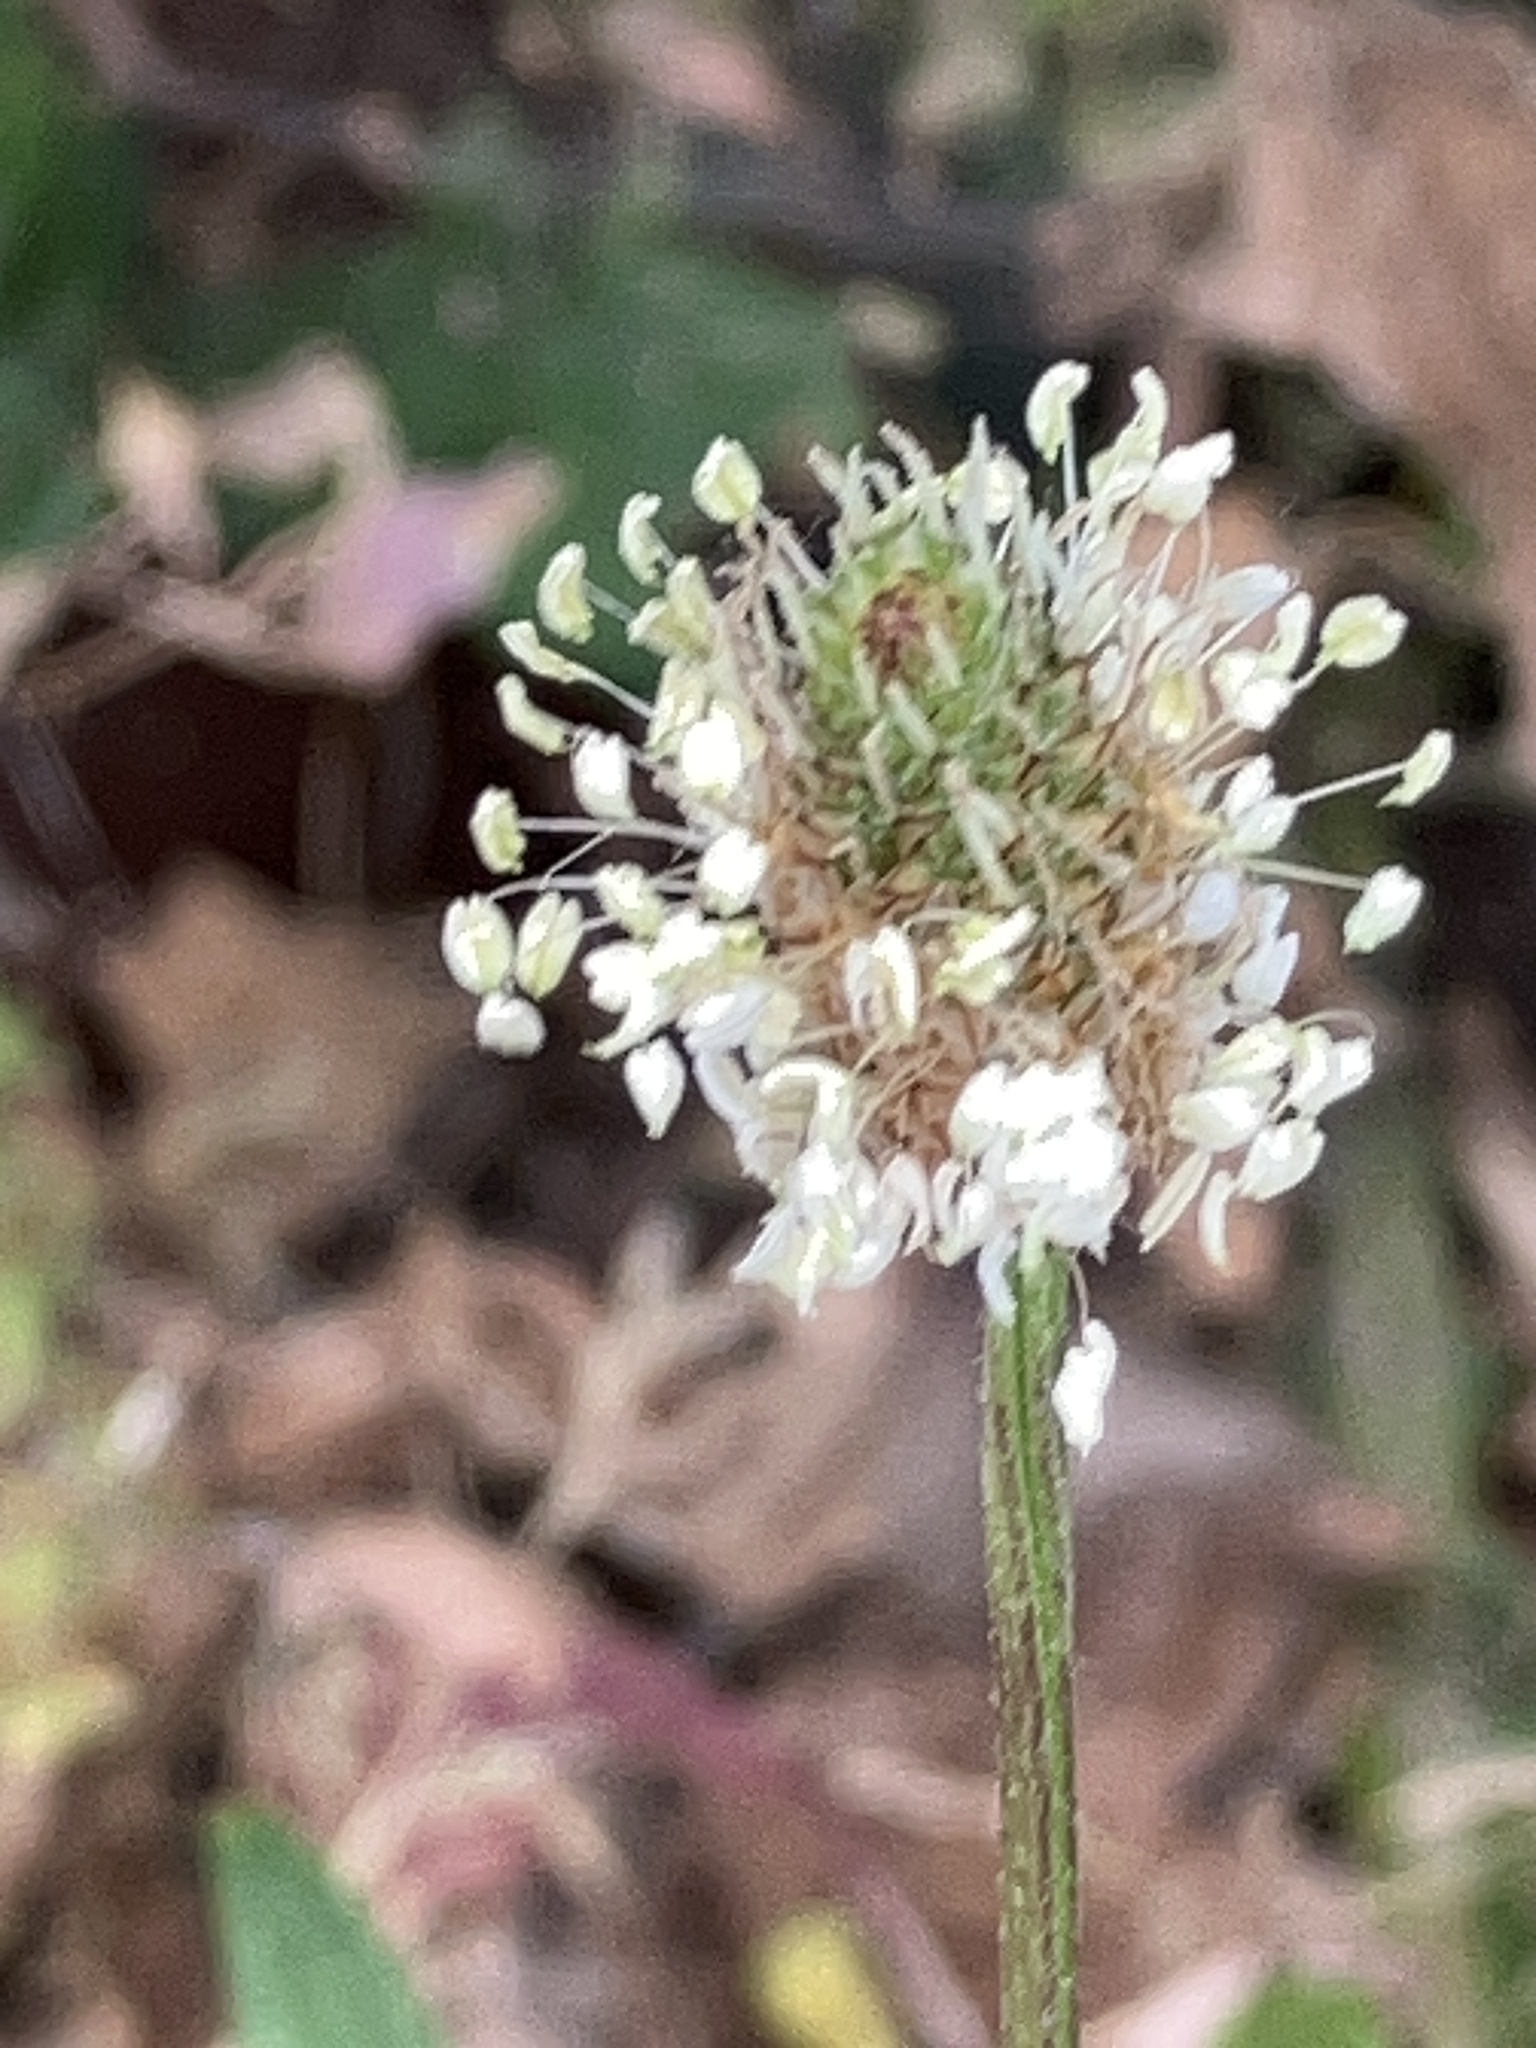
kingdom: Plantae
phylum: Tracheophyta
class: Magnoliopsida
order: Lamiales
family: Plantaginaceae
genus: Plantago
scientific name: Plantago lanceolata
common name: Ribwort plantain
